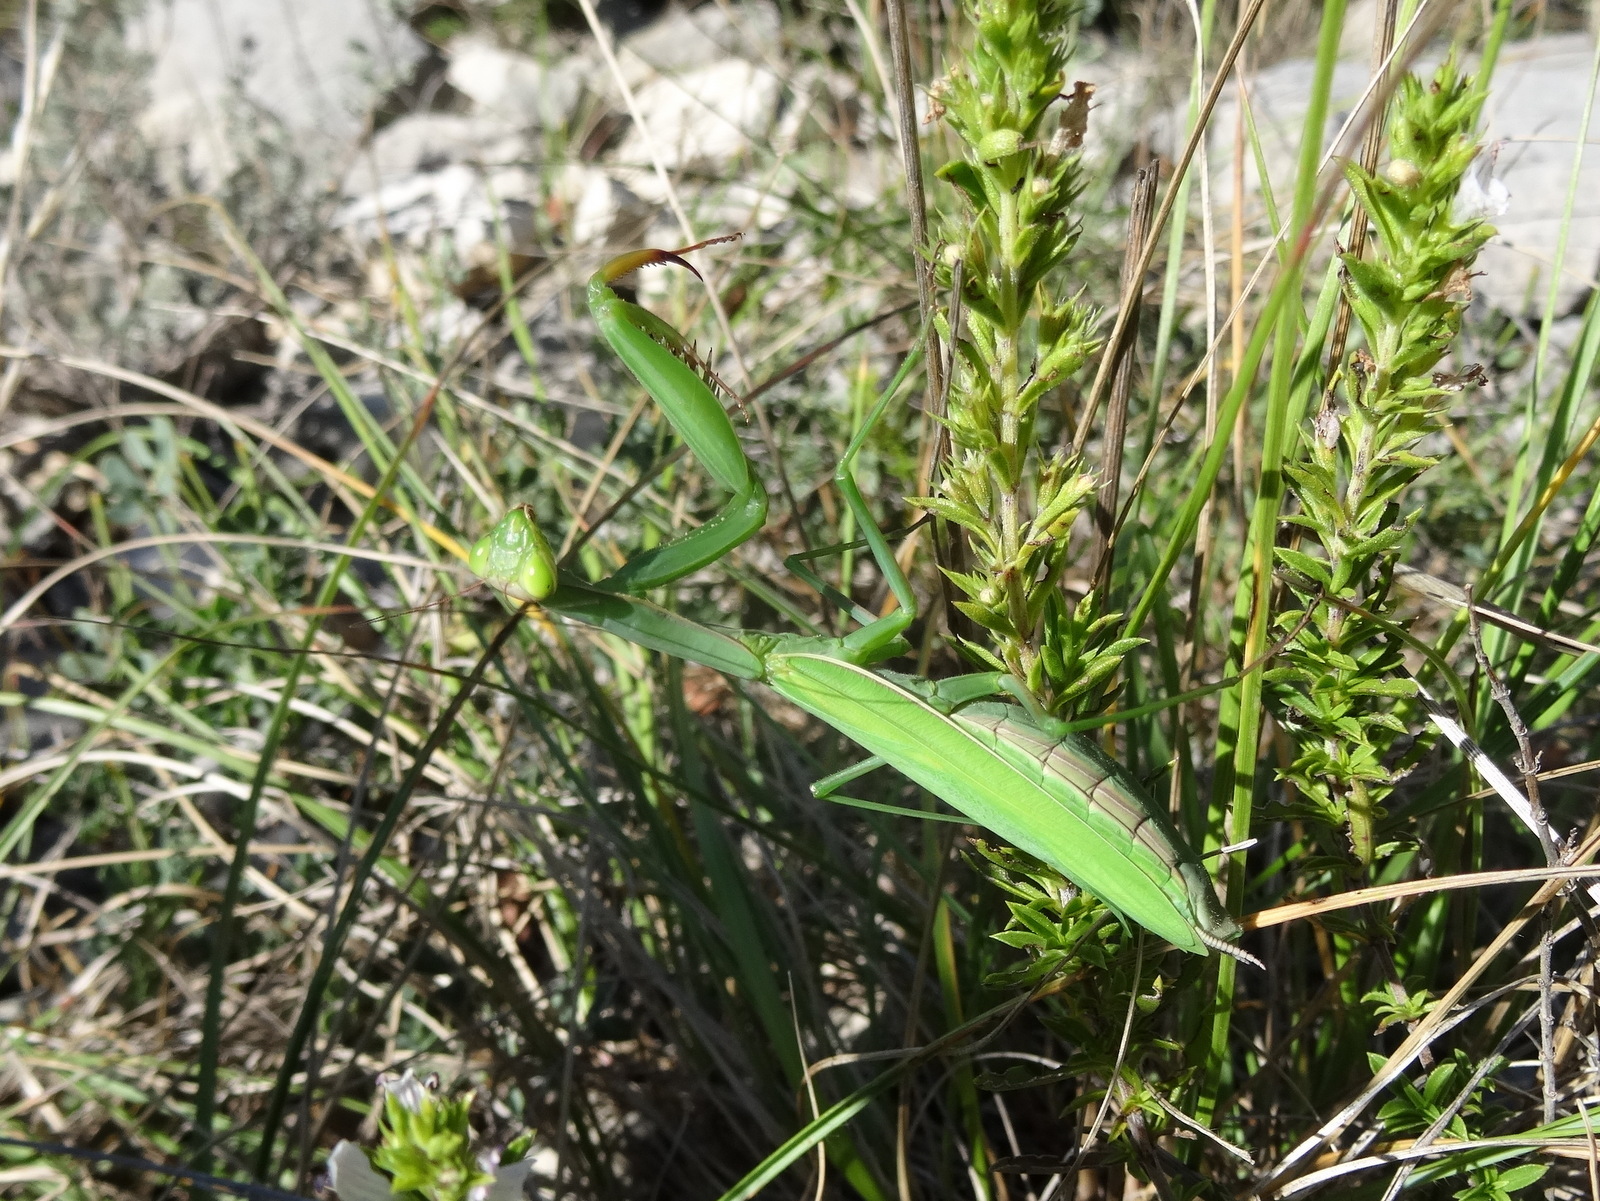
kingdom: Animalia
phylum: Arthropoda
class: Insecta
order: Mantodea
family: Mantidae
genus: Mantis
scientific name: Mantis religiosa
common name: Praying mantis
